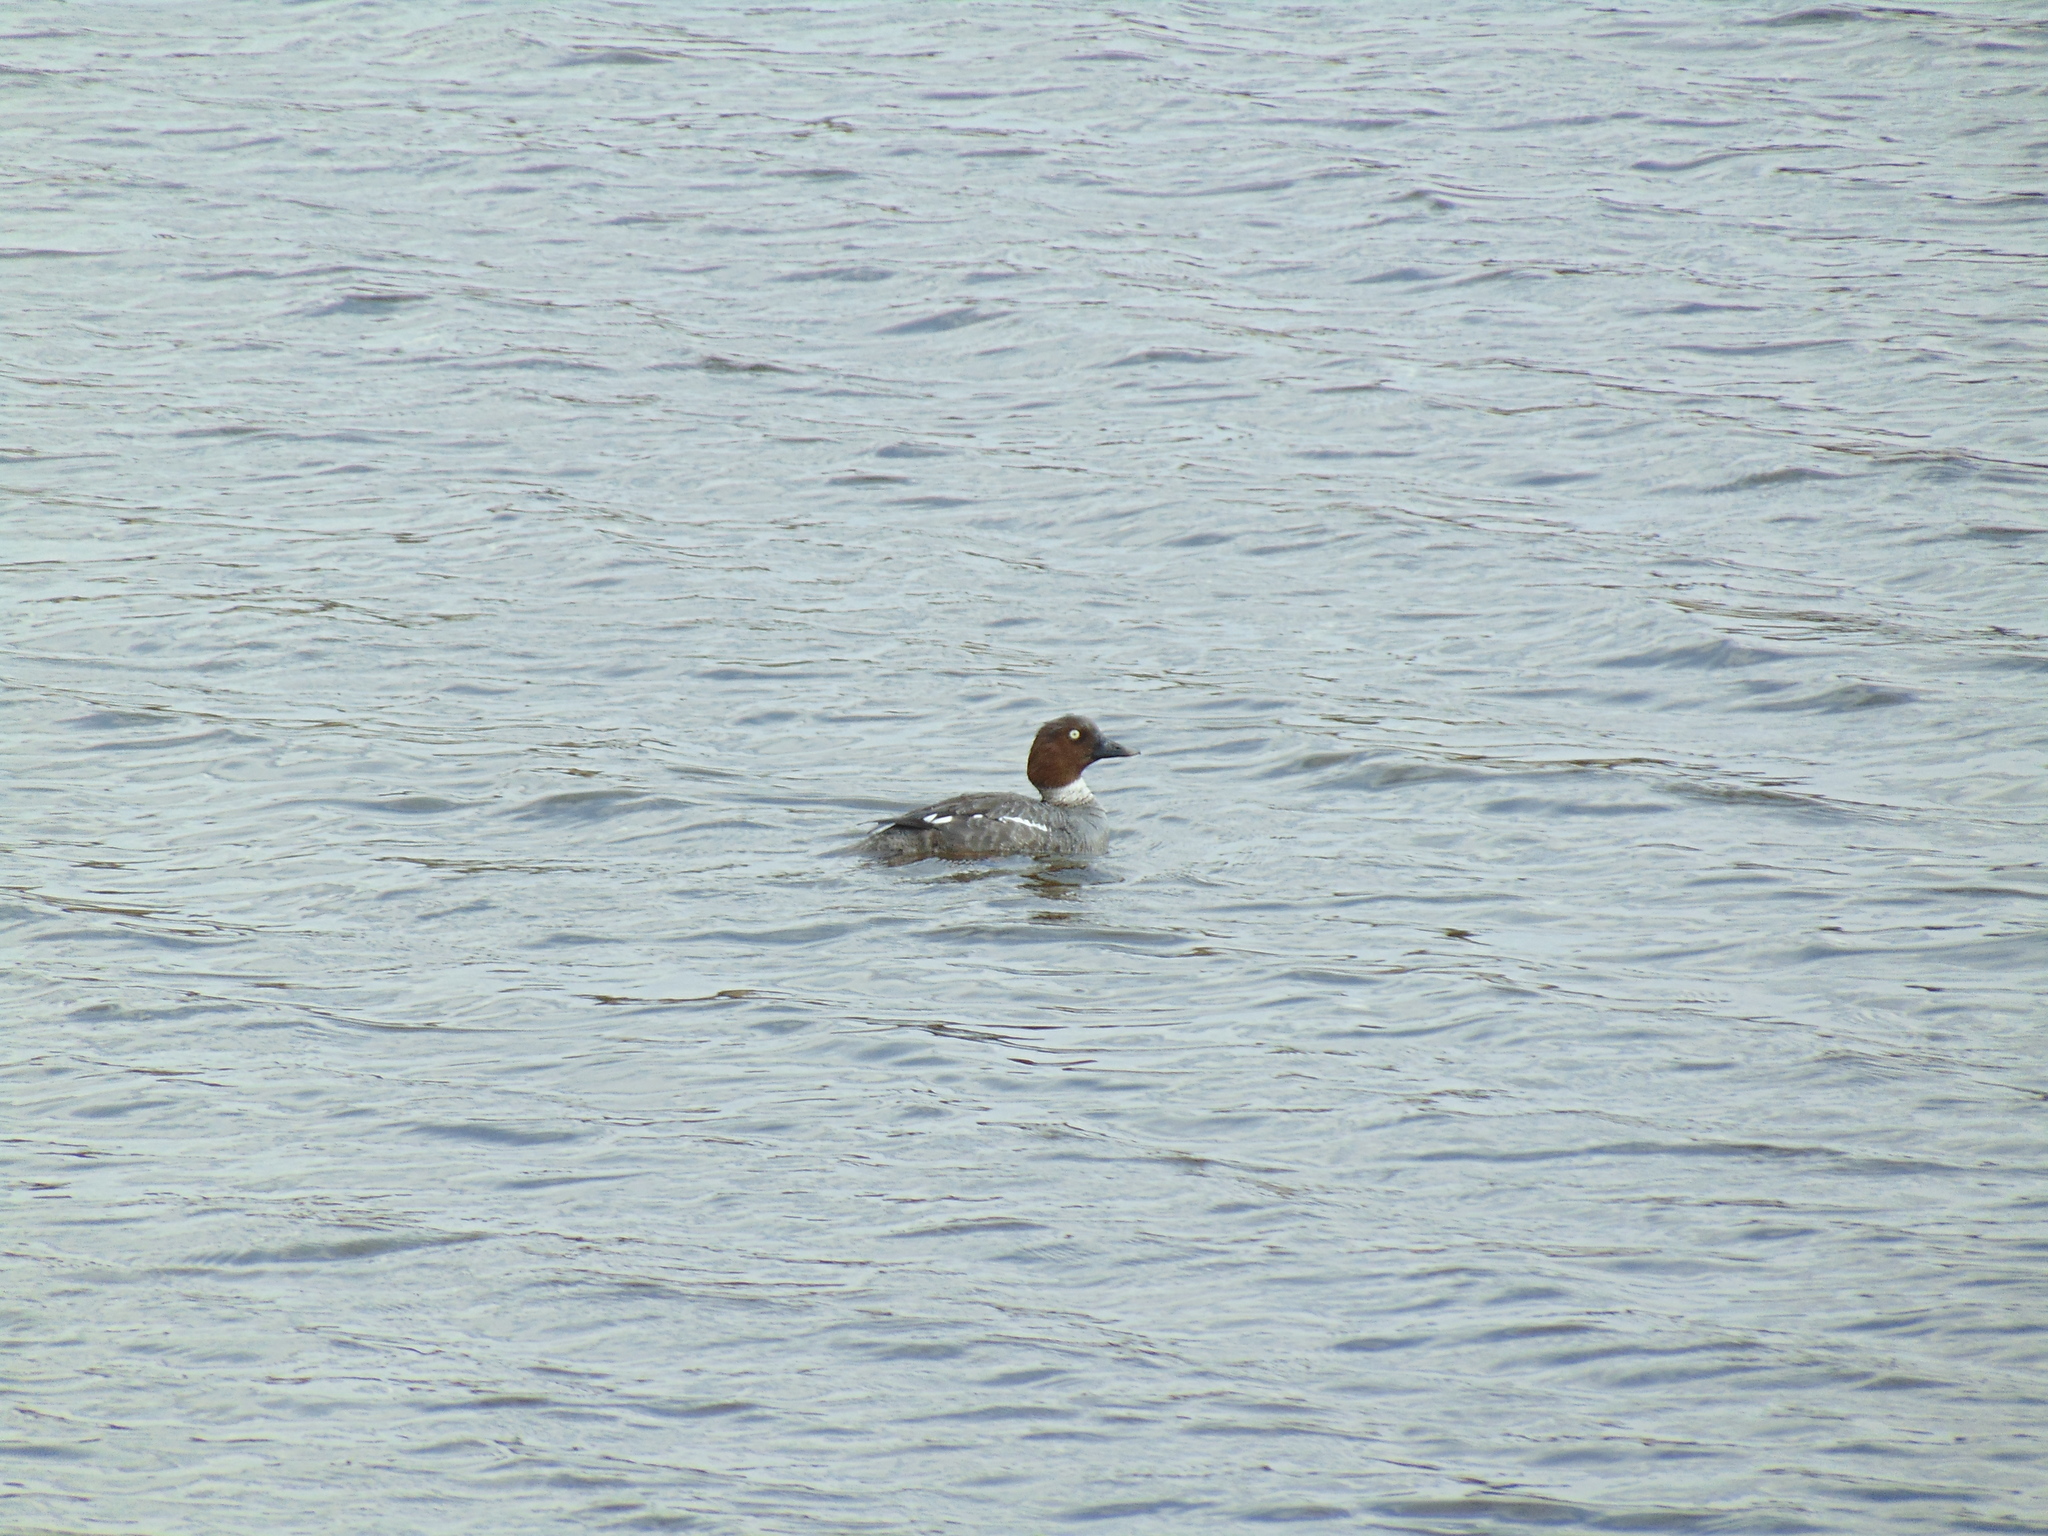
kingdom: Animalia
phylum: Chordata
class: Aves
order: Anseriformes
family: Anatidae
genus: Bucephala
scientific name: Bucephala clangula
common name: Common goldeneye
